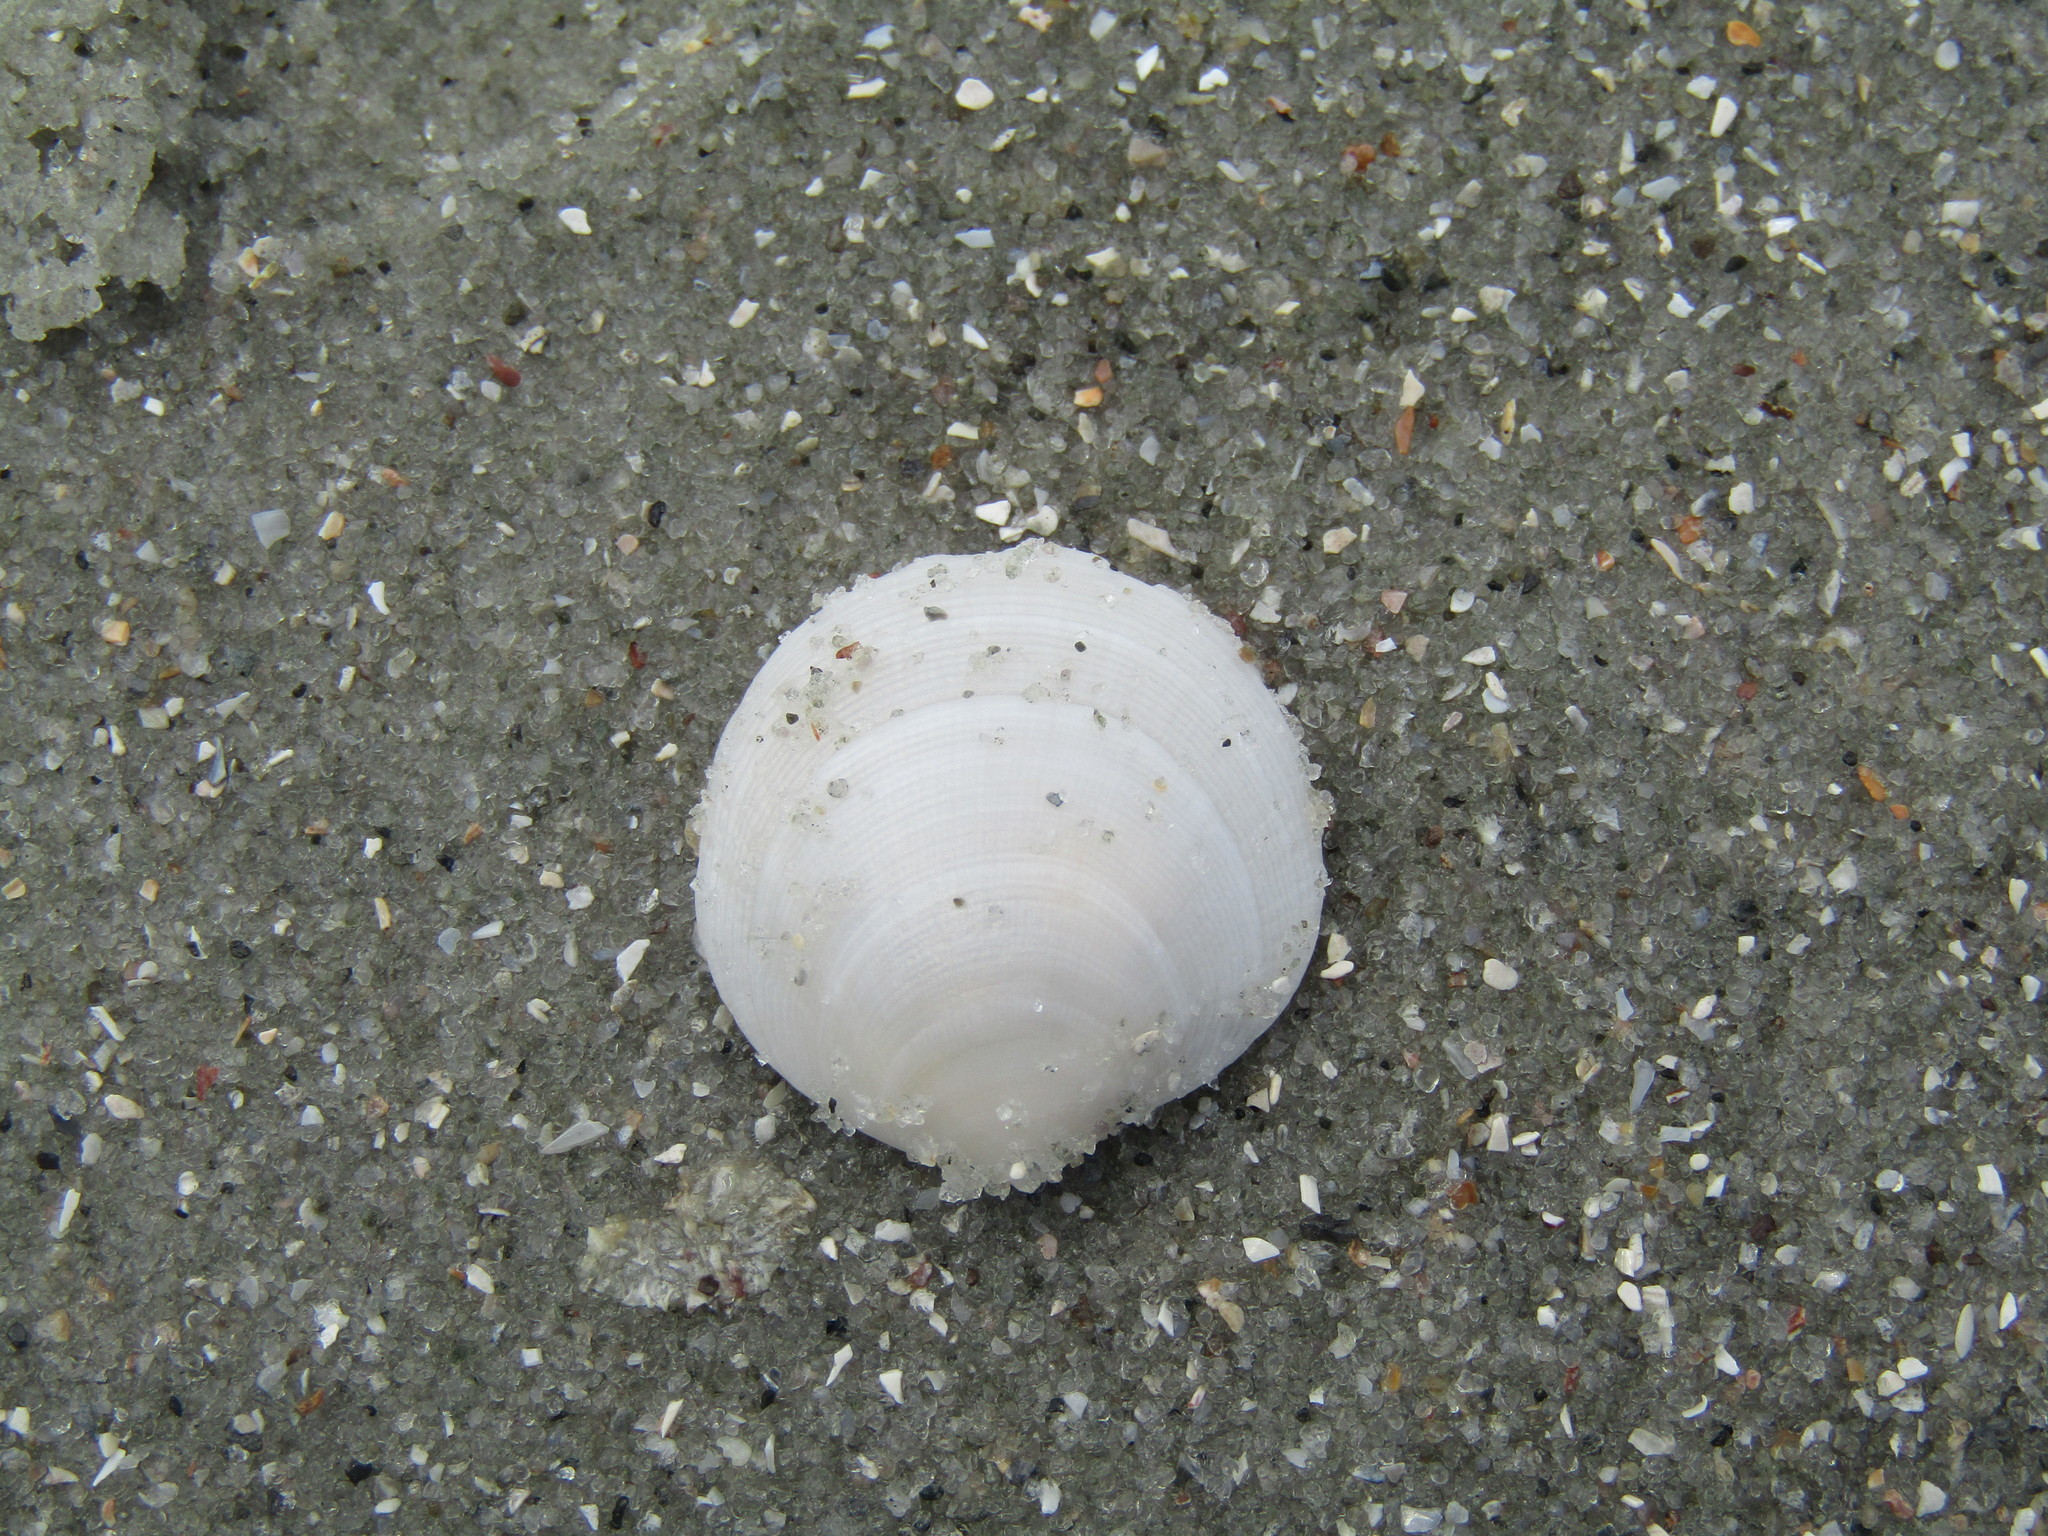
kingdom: Animalia
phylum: Mollusca
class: Bivalvia
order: Lucinida
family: Lucinidae
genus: Callucina
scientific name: Callucina keenae
